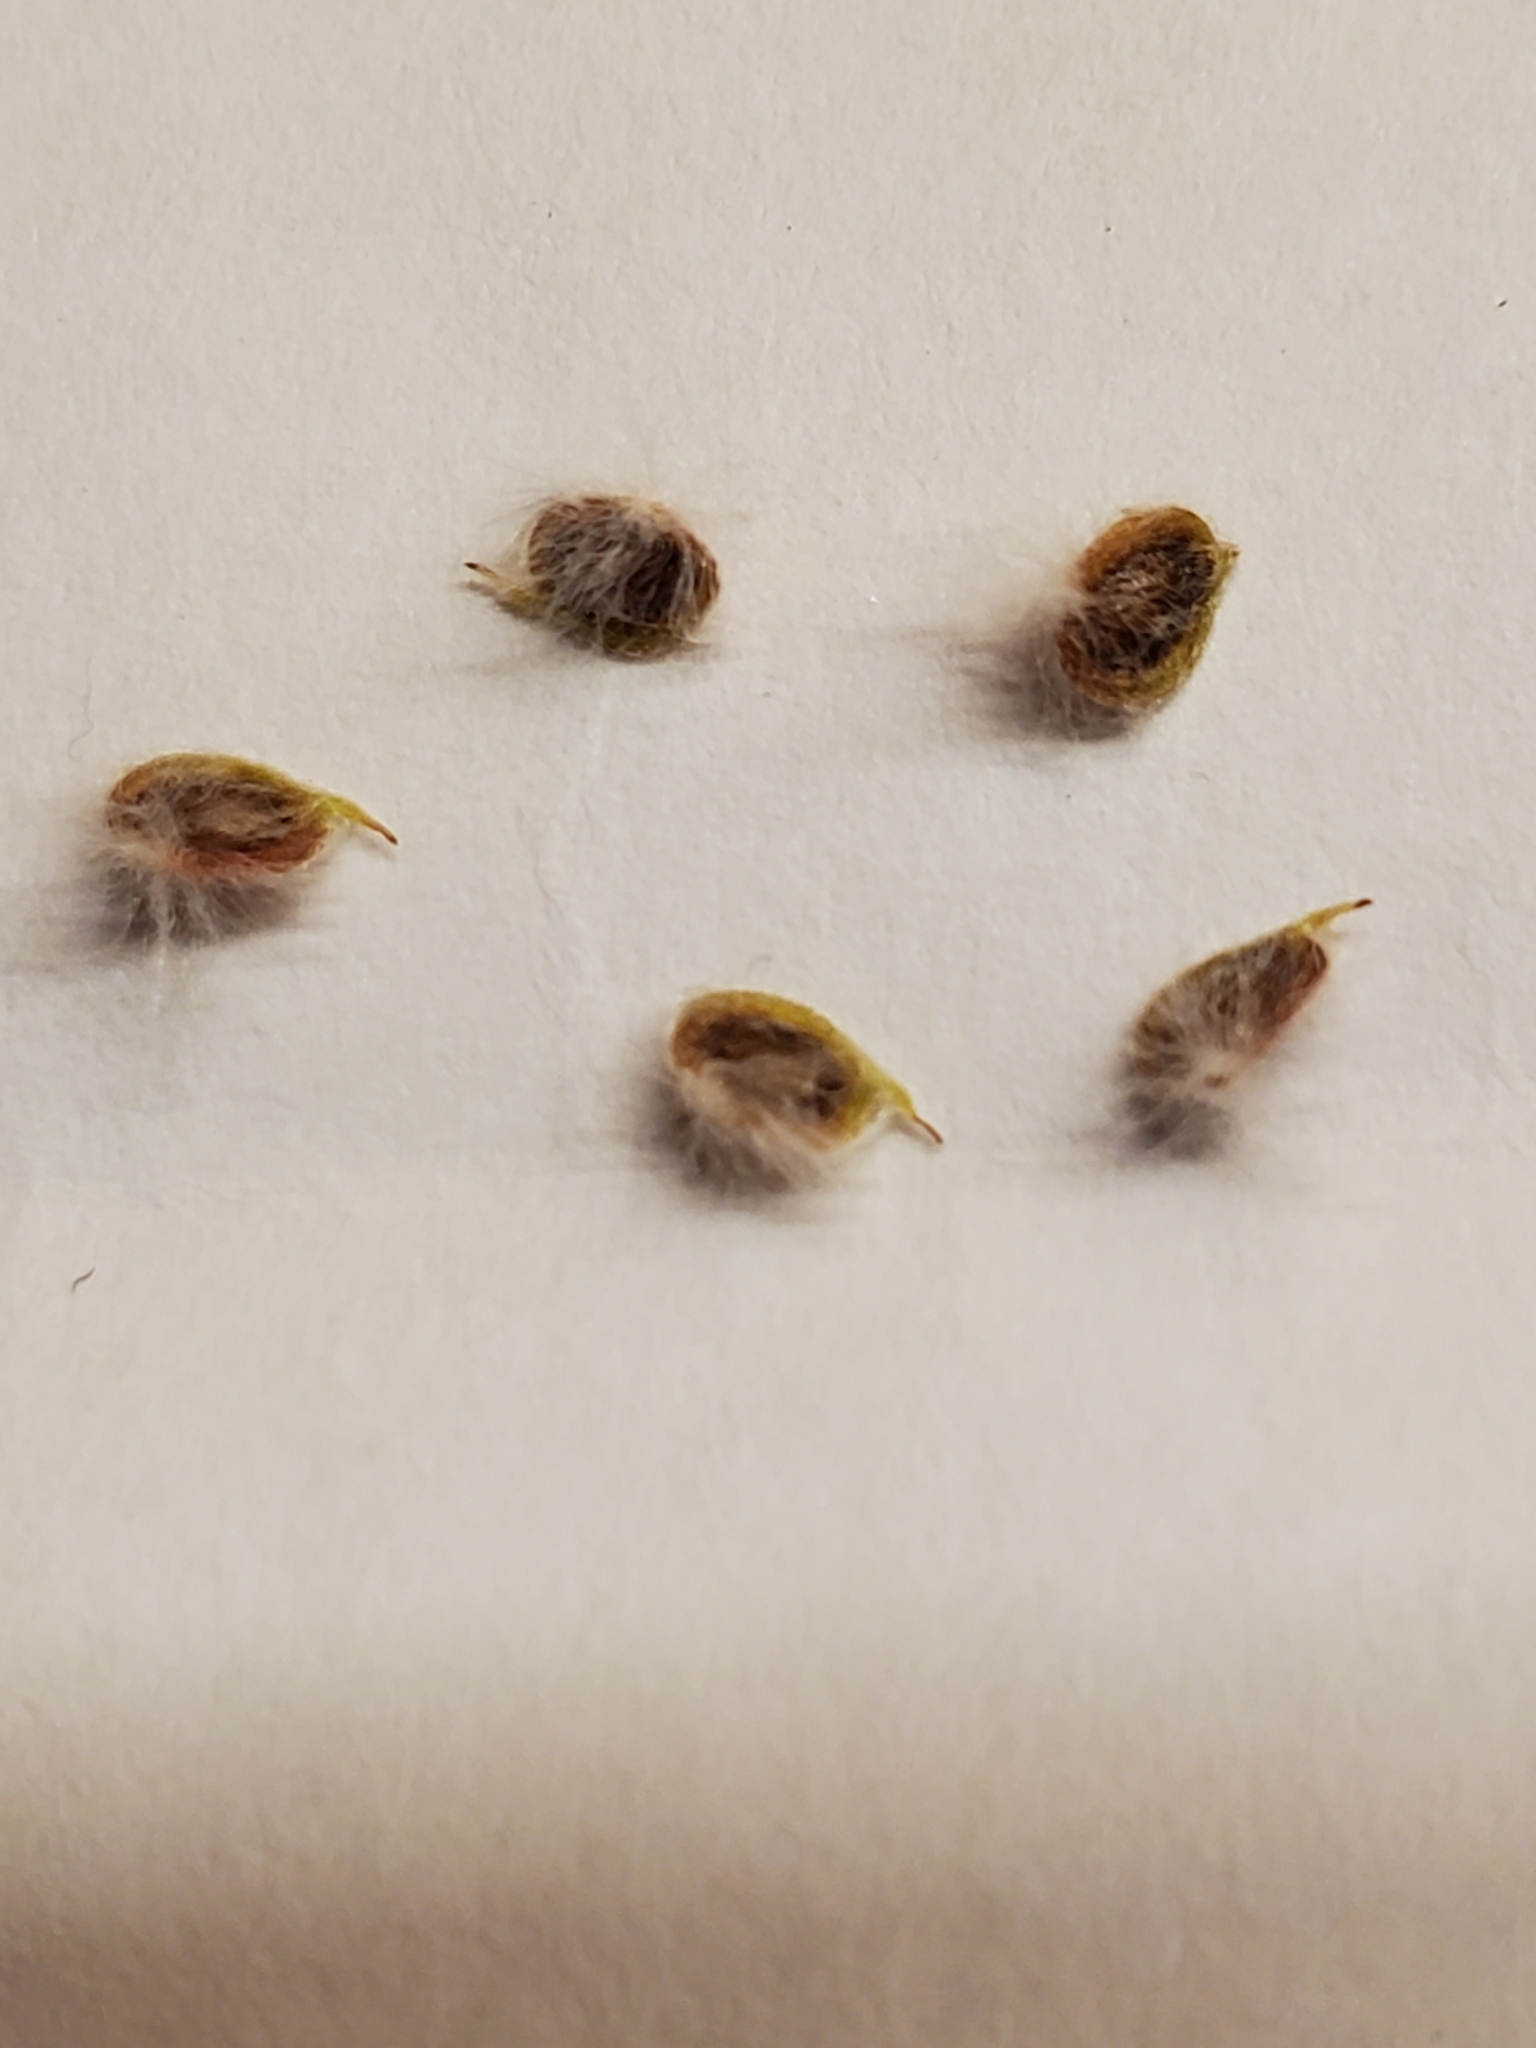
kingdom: Plantae
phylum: Tracheophyta
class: Magnoliopsida
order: Ranunculales
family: Ranunculaceae
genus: Anemone
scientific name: Anemone edwardsiana
